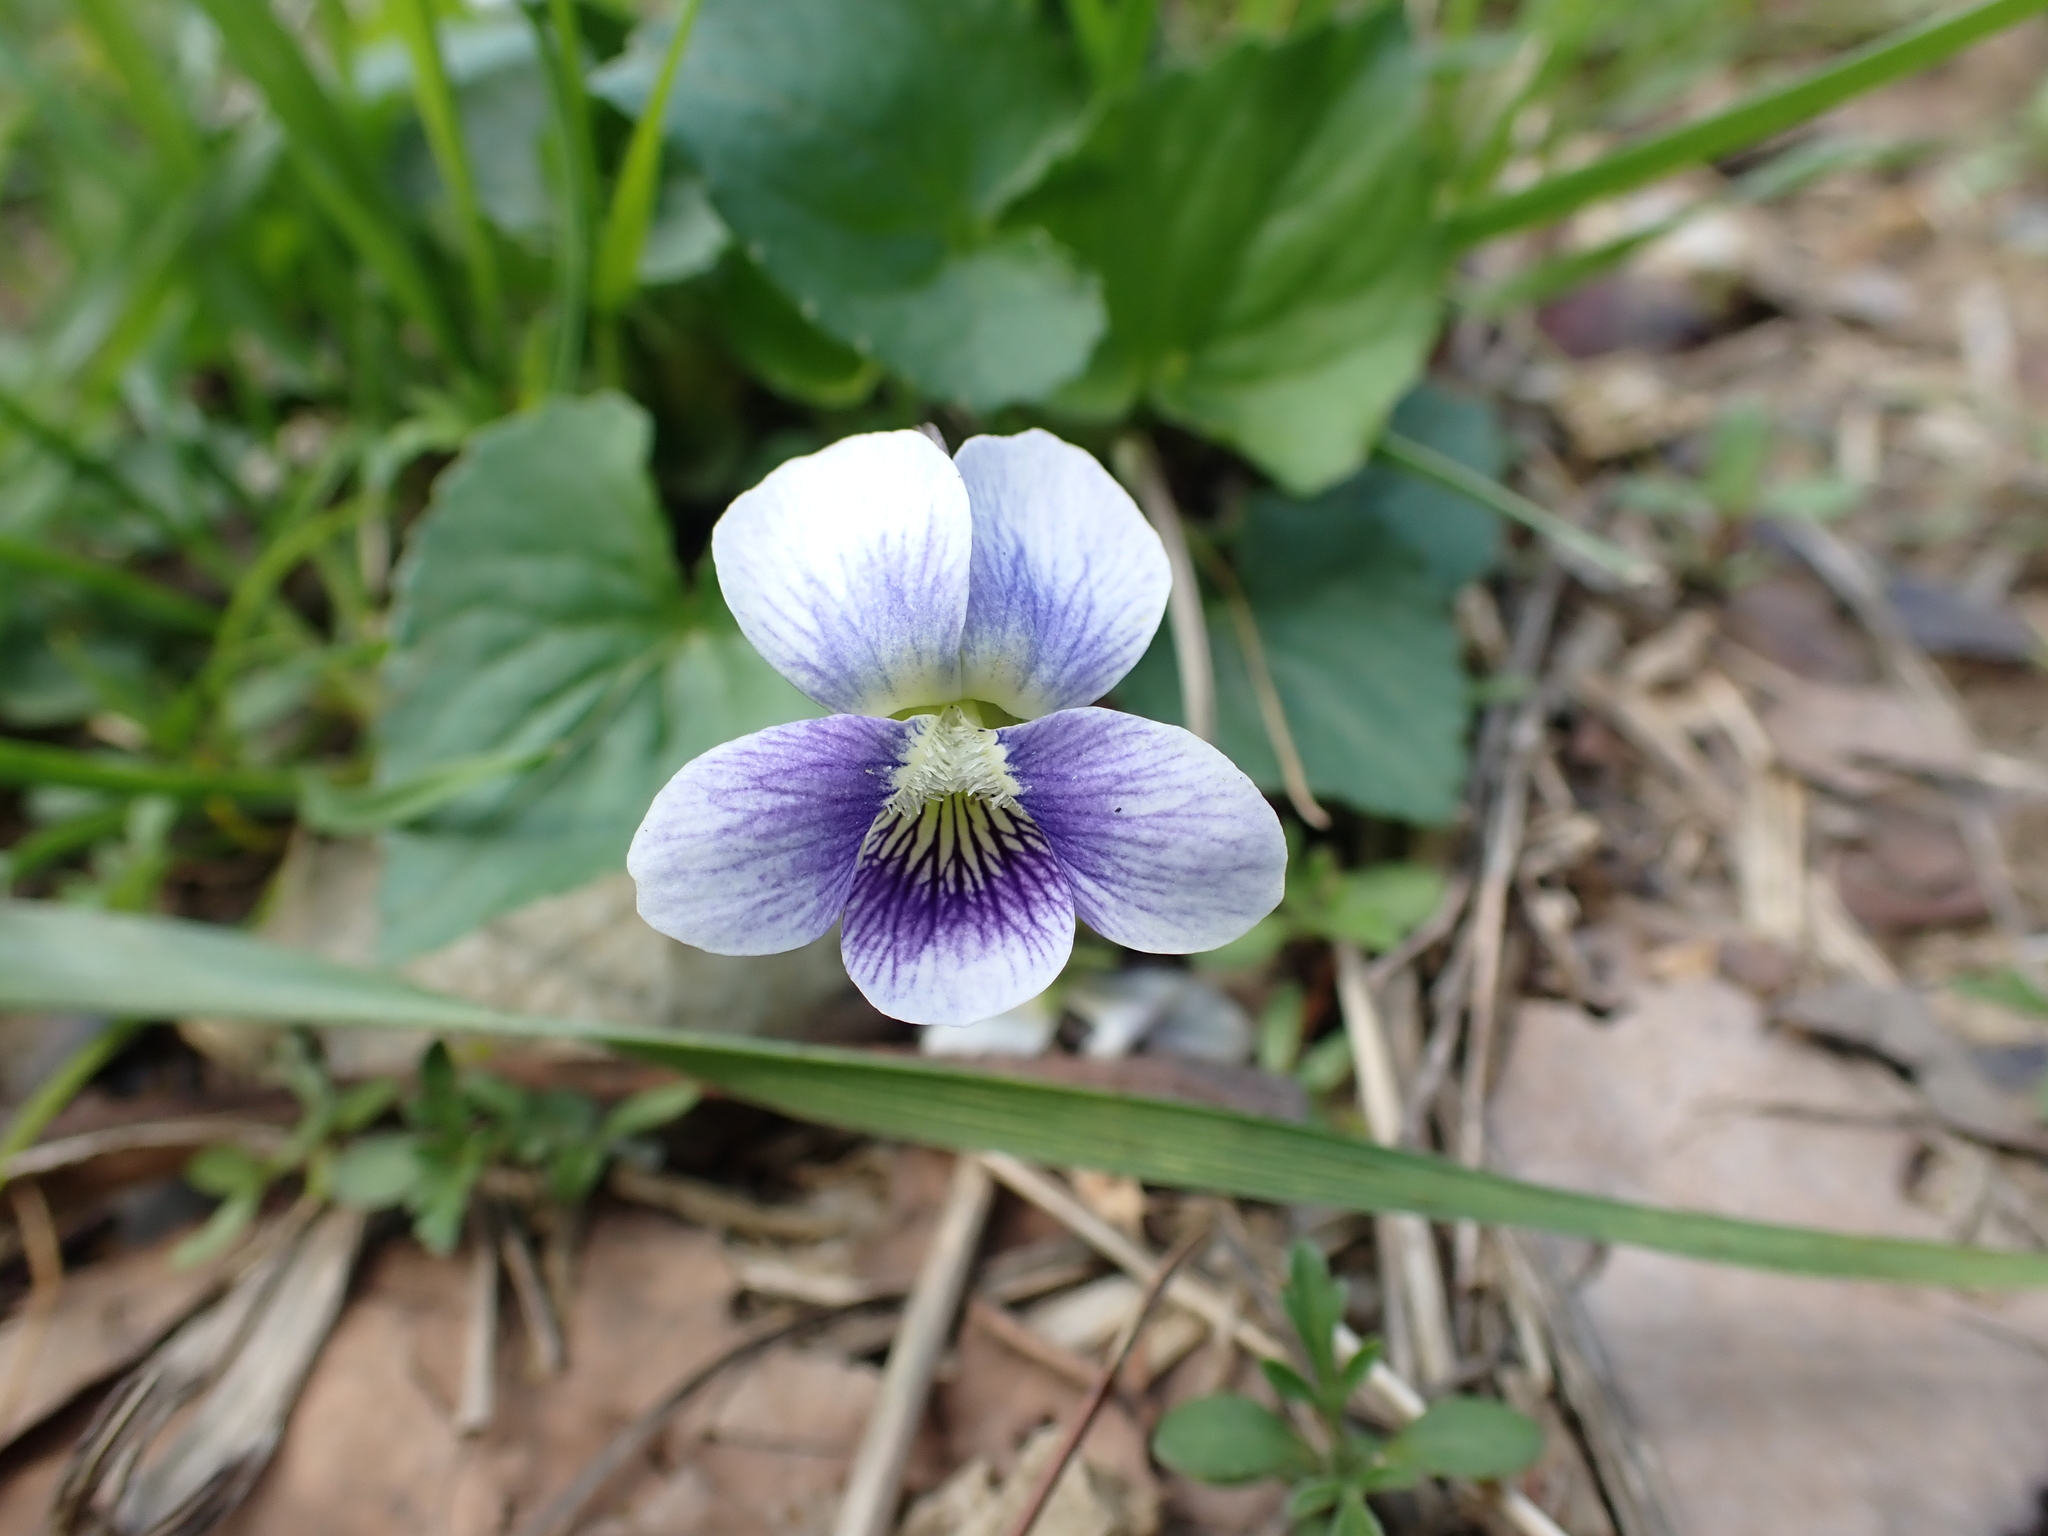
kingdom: Plantae
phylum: Tracheophyta
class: Magnoliopsida
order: Malpighiales
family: Violaceae
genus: Viola
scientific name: Viola sororia
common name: Dooryard violet
